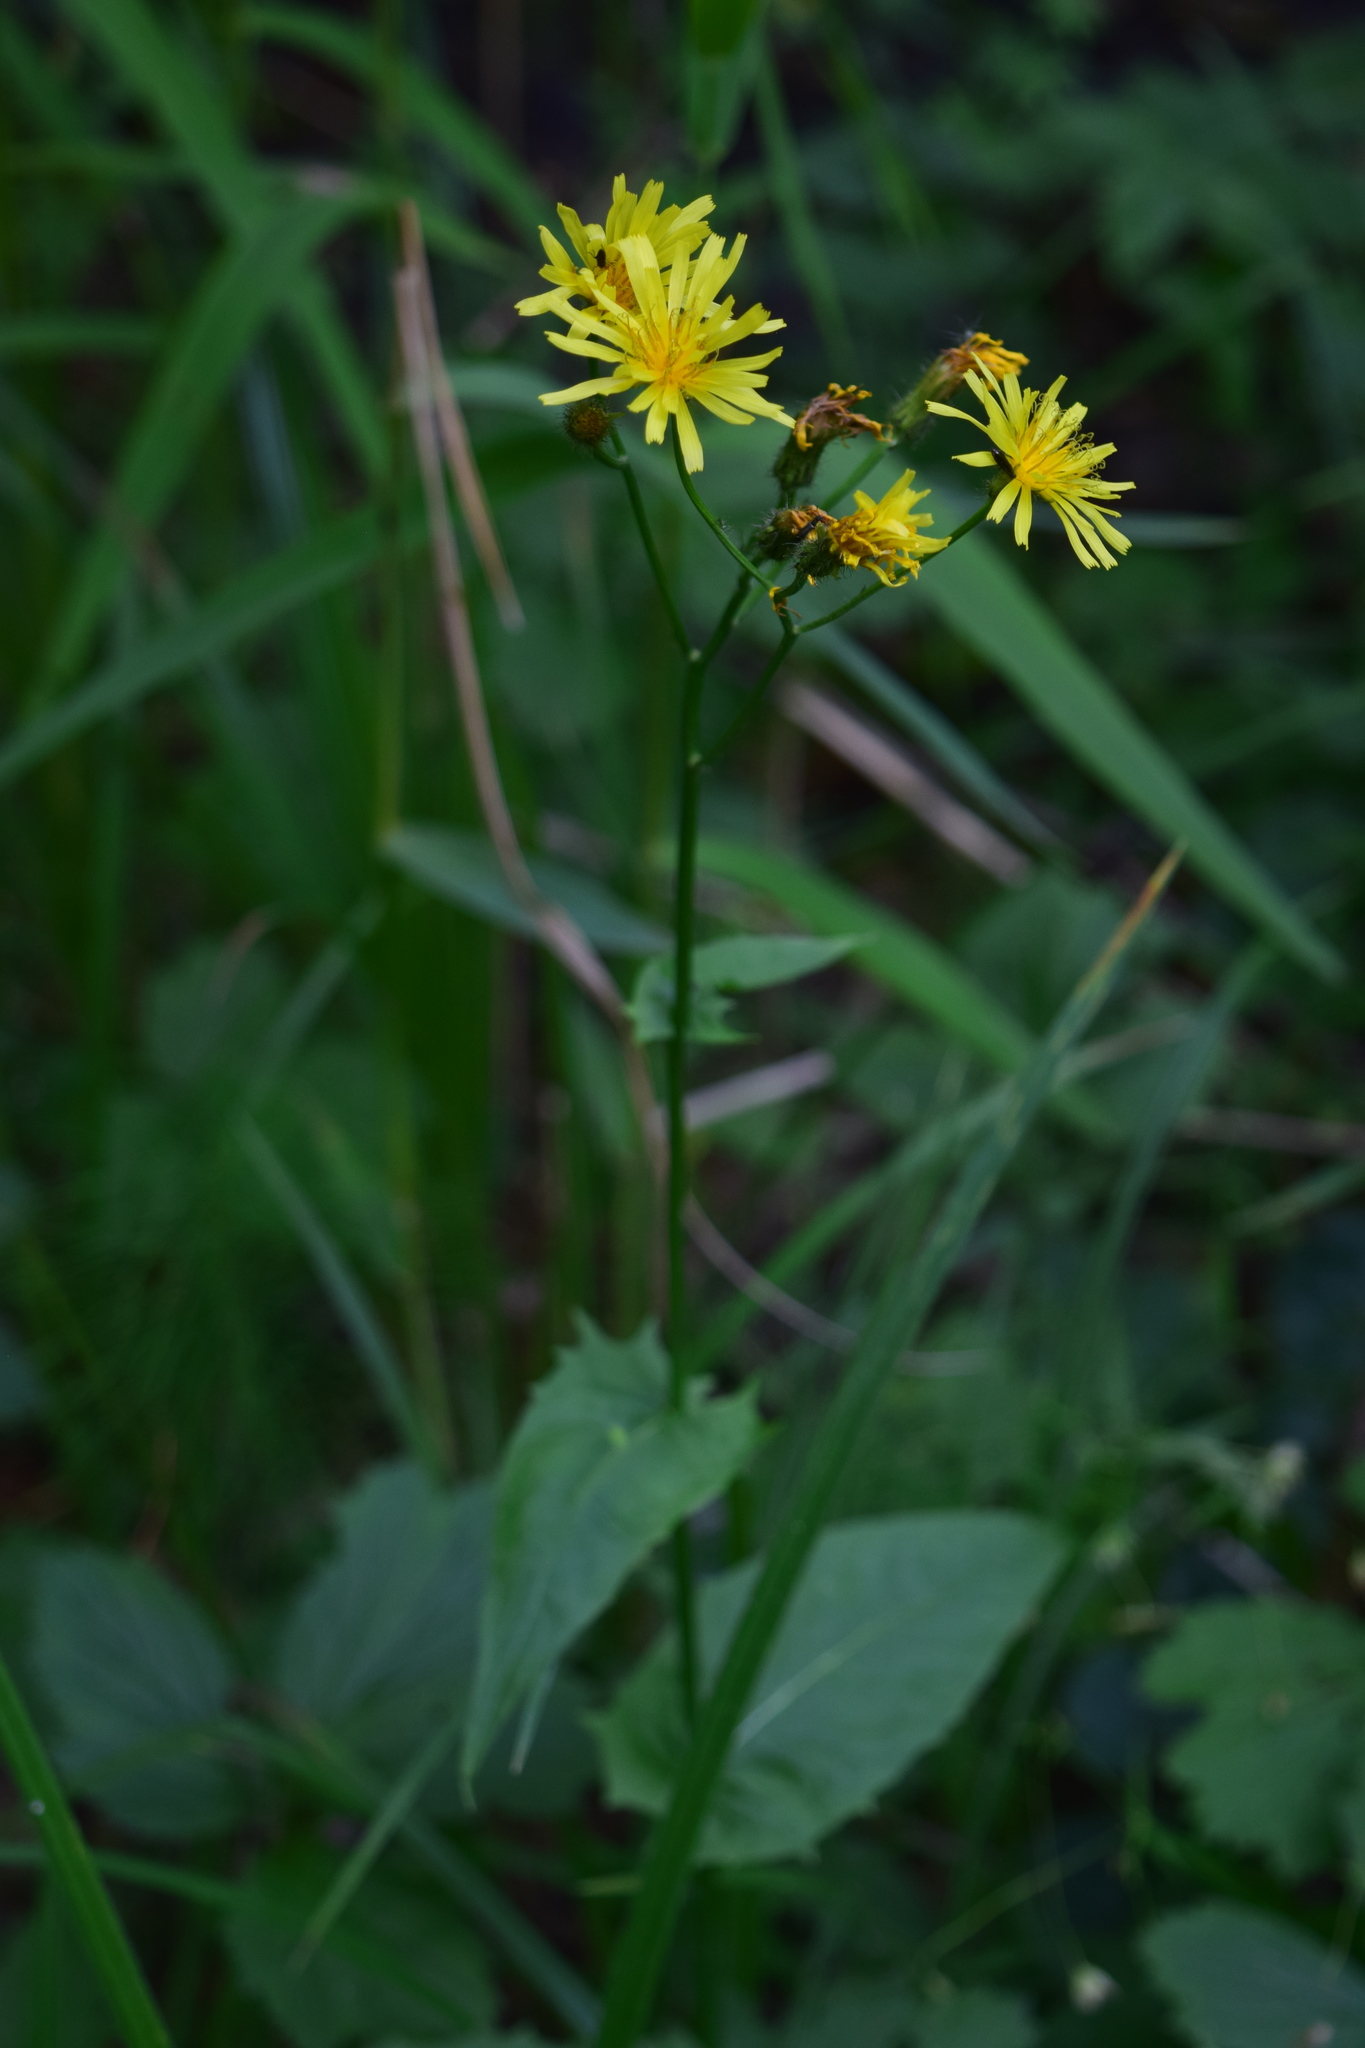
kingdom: Plantae
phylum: Tracheophyta
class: Magnoliopsida
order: Asterales
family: Asteraceae
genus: Crepis
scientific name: Crepis paludosa
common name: Marsh hawk's-beard
